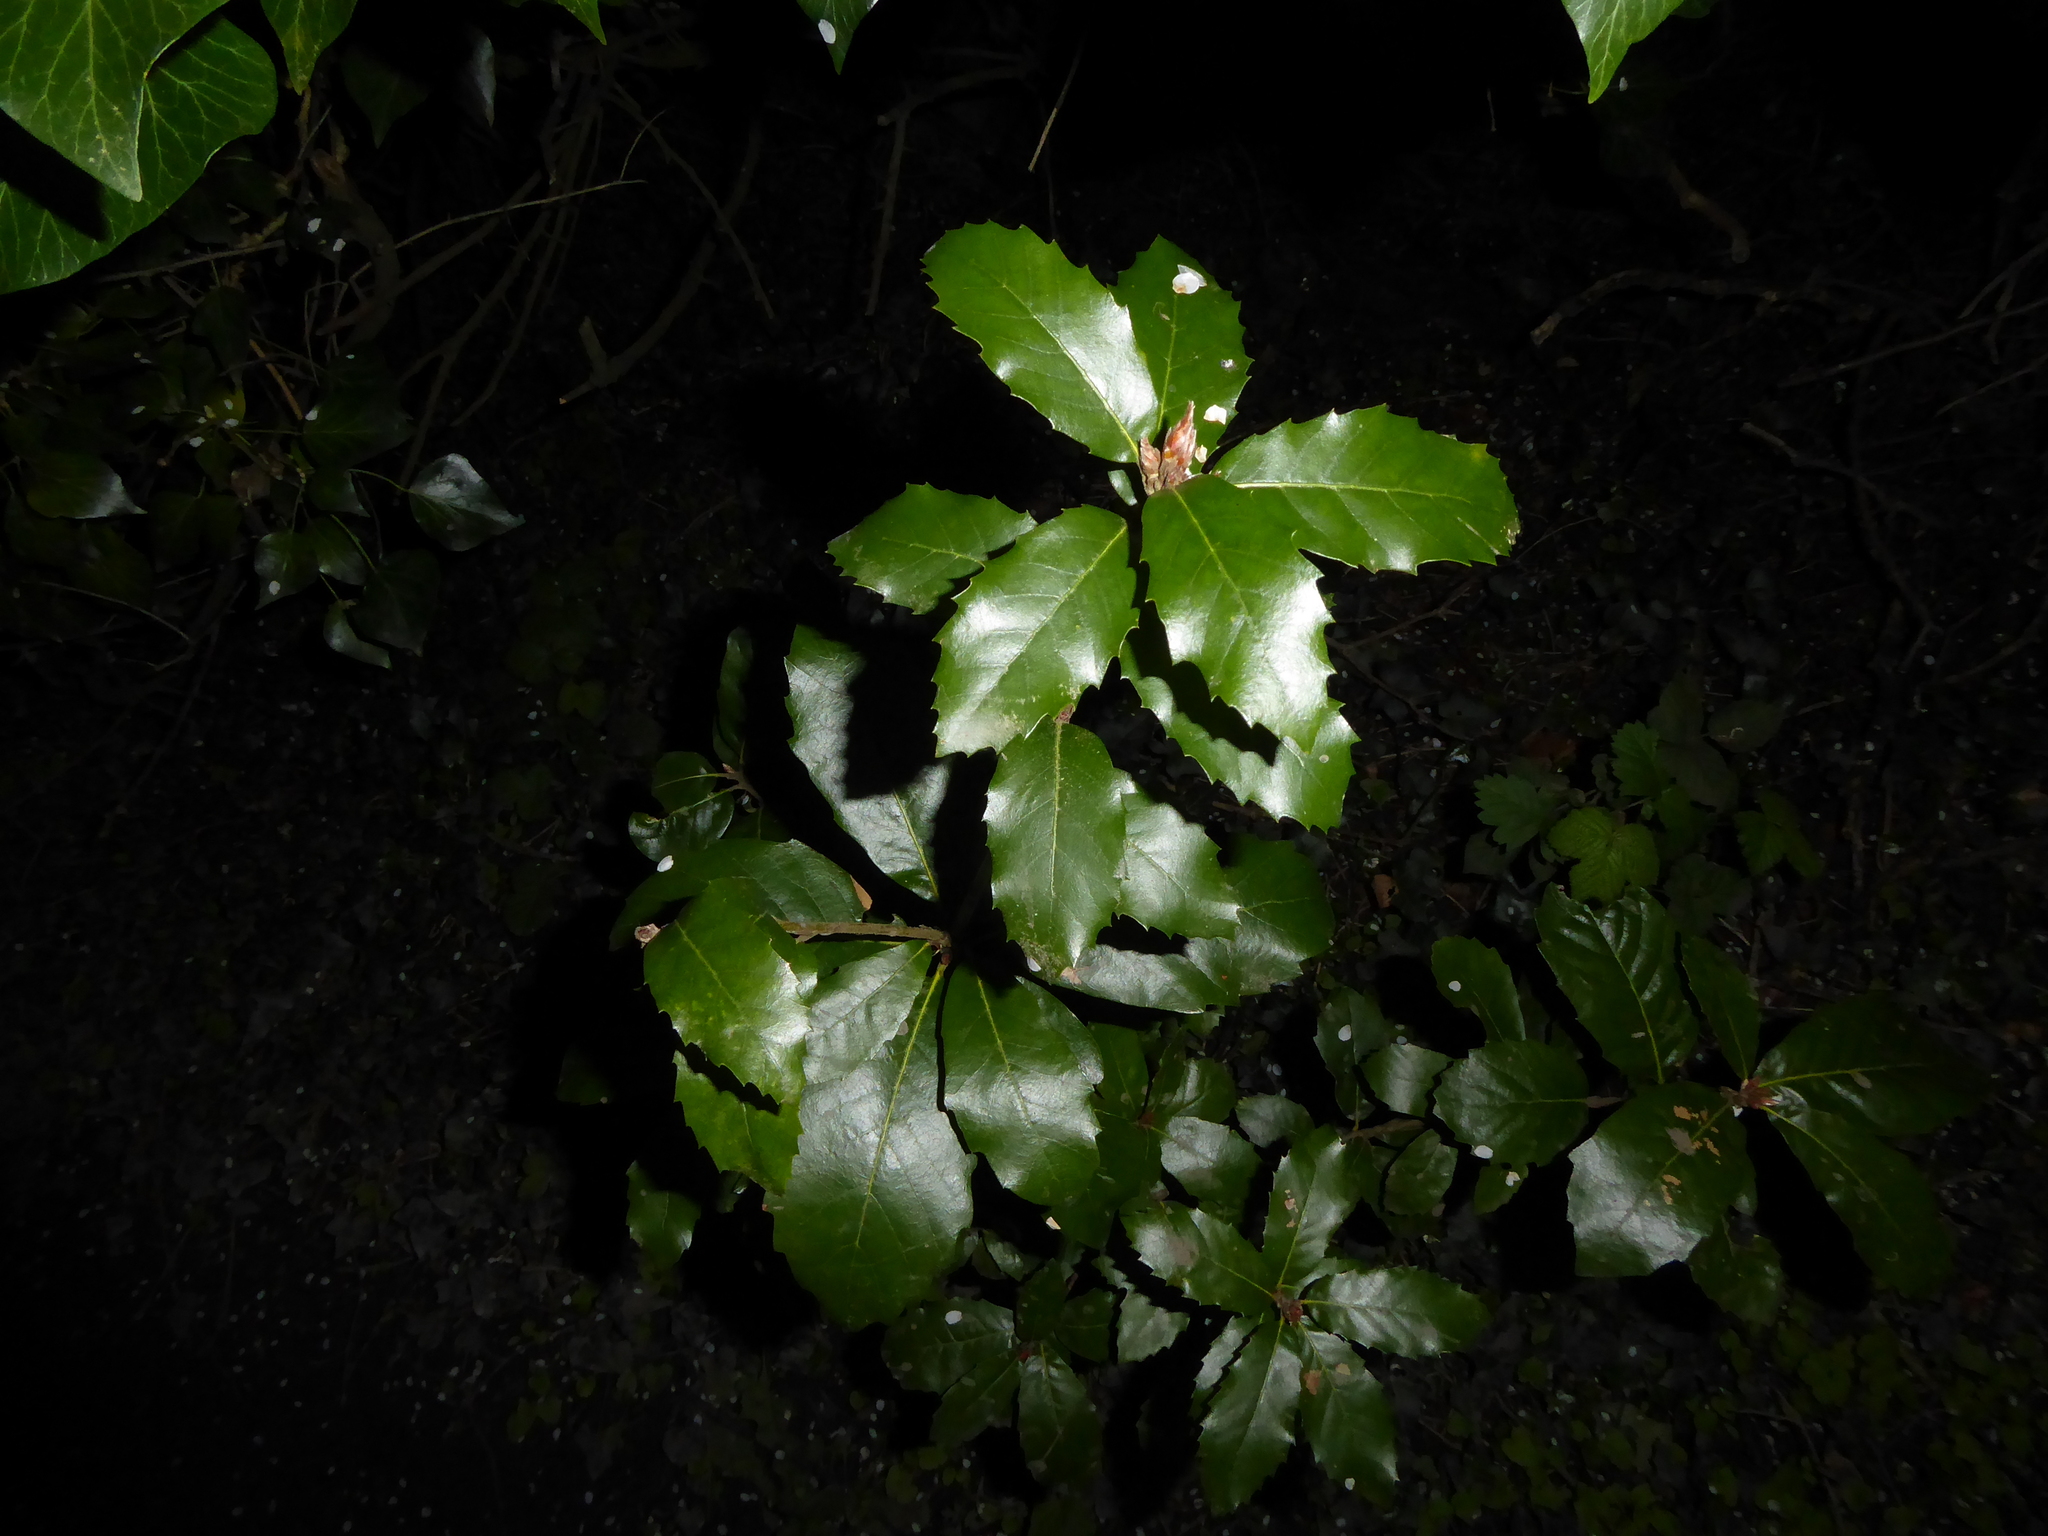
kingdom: Plantae
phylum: Tracheophyta
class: Magnoliopsida
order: Fagales
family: Fagaceae
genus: Quercus
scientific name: Quercus ilex
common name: Evergreen oak
